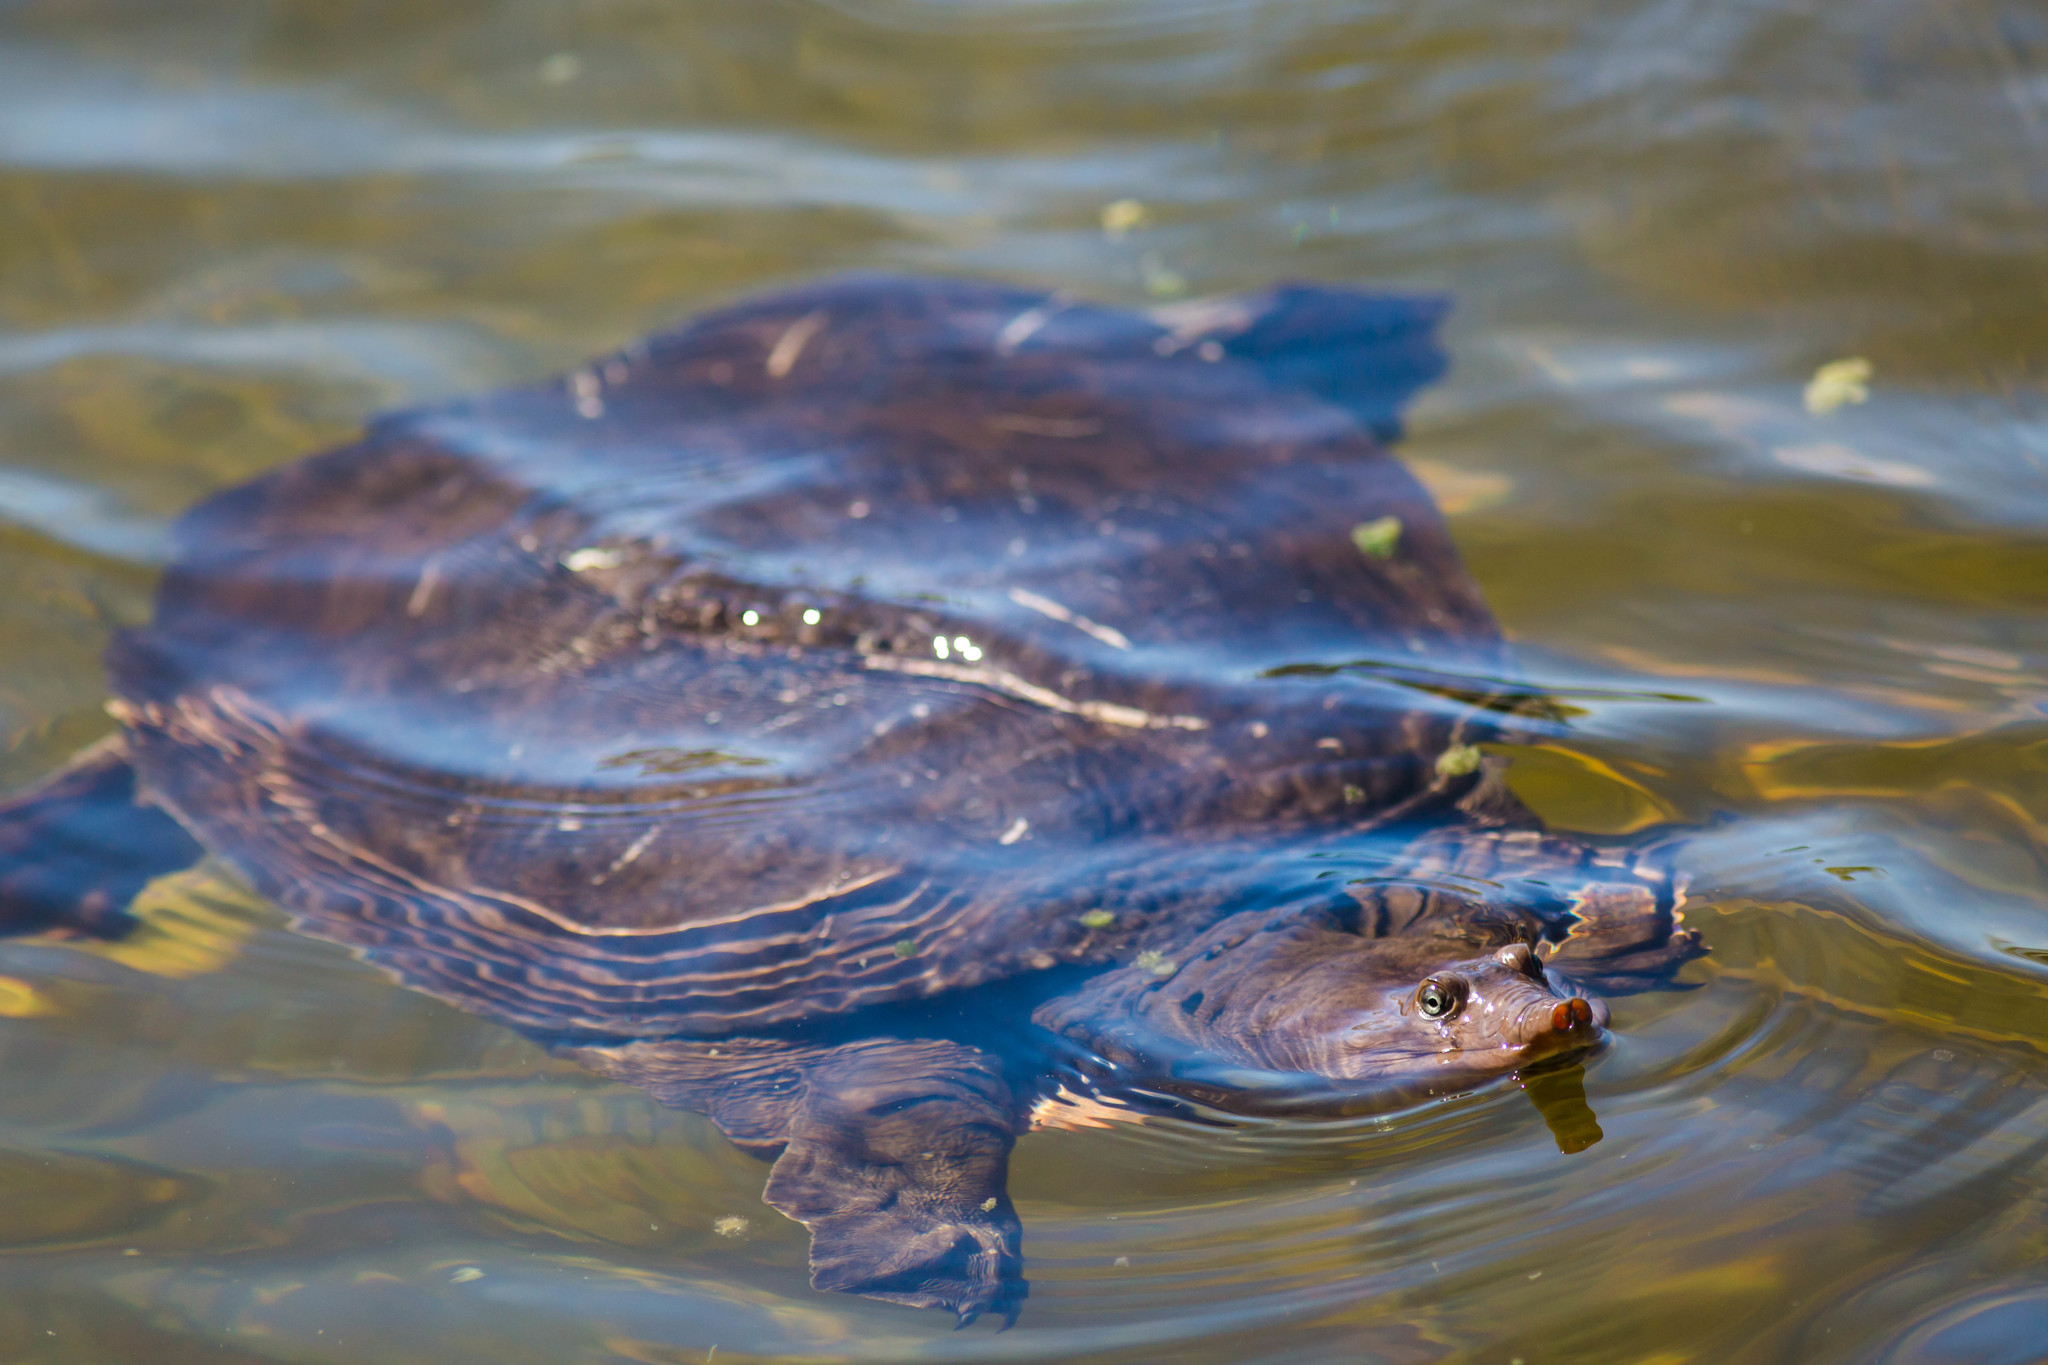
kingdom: Animalia
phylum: Chordata
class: Testudines
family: Trionychidae
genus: Apalone
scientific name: Apalone ferox
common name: Florida softshell turtle
